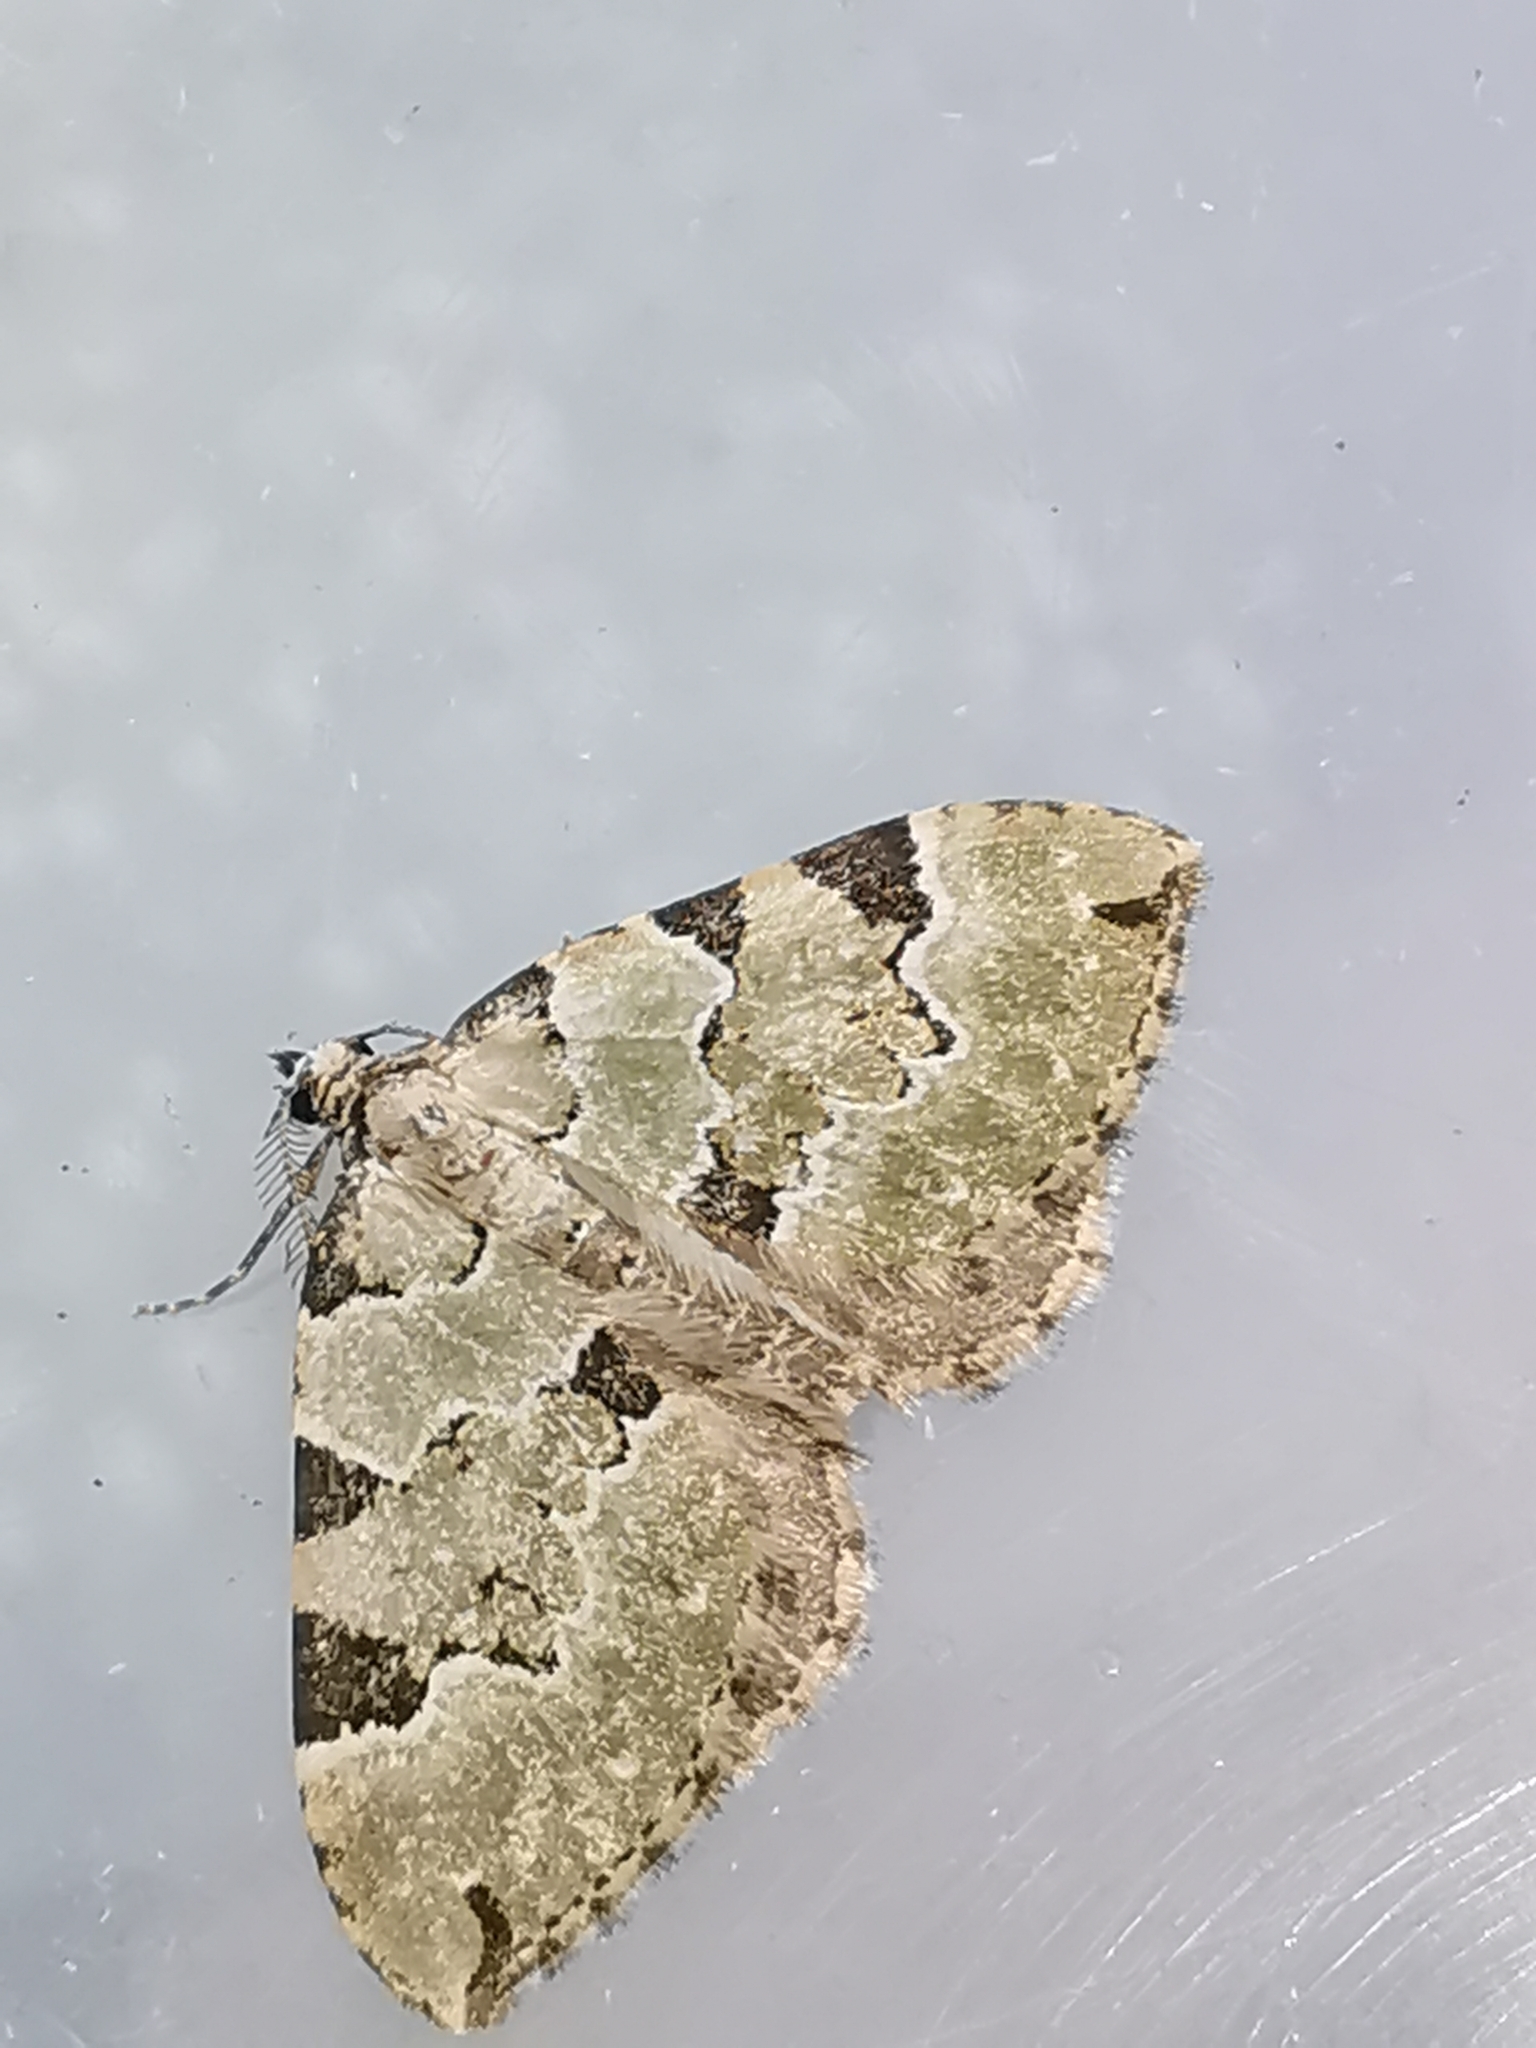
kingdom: Animalia
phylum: Arthropoda
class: Insecta
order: Lepidoptera
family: Geometridae
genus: Colostygia
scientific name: Colostygia pectinataria
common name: Green carpet
